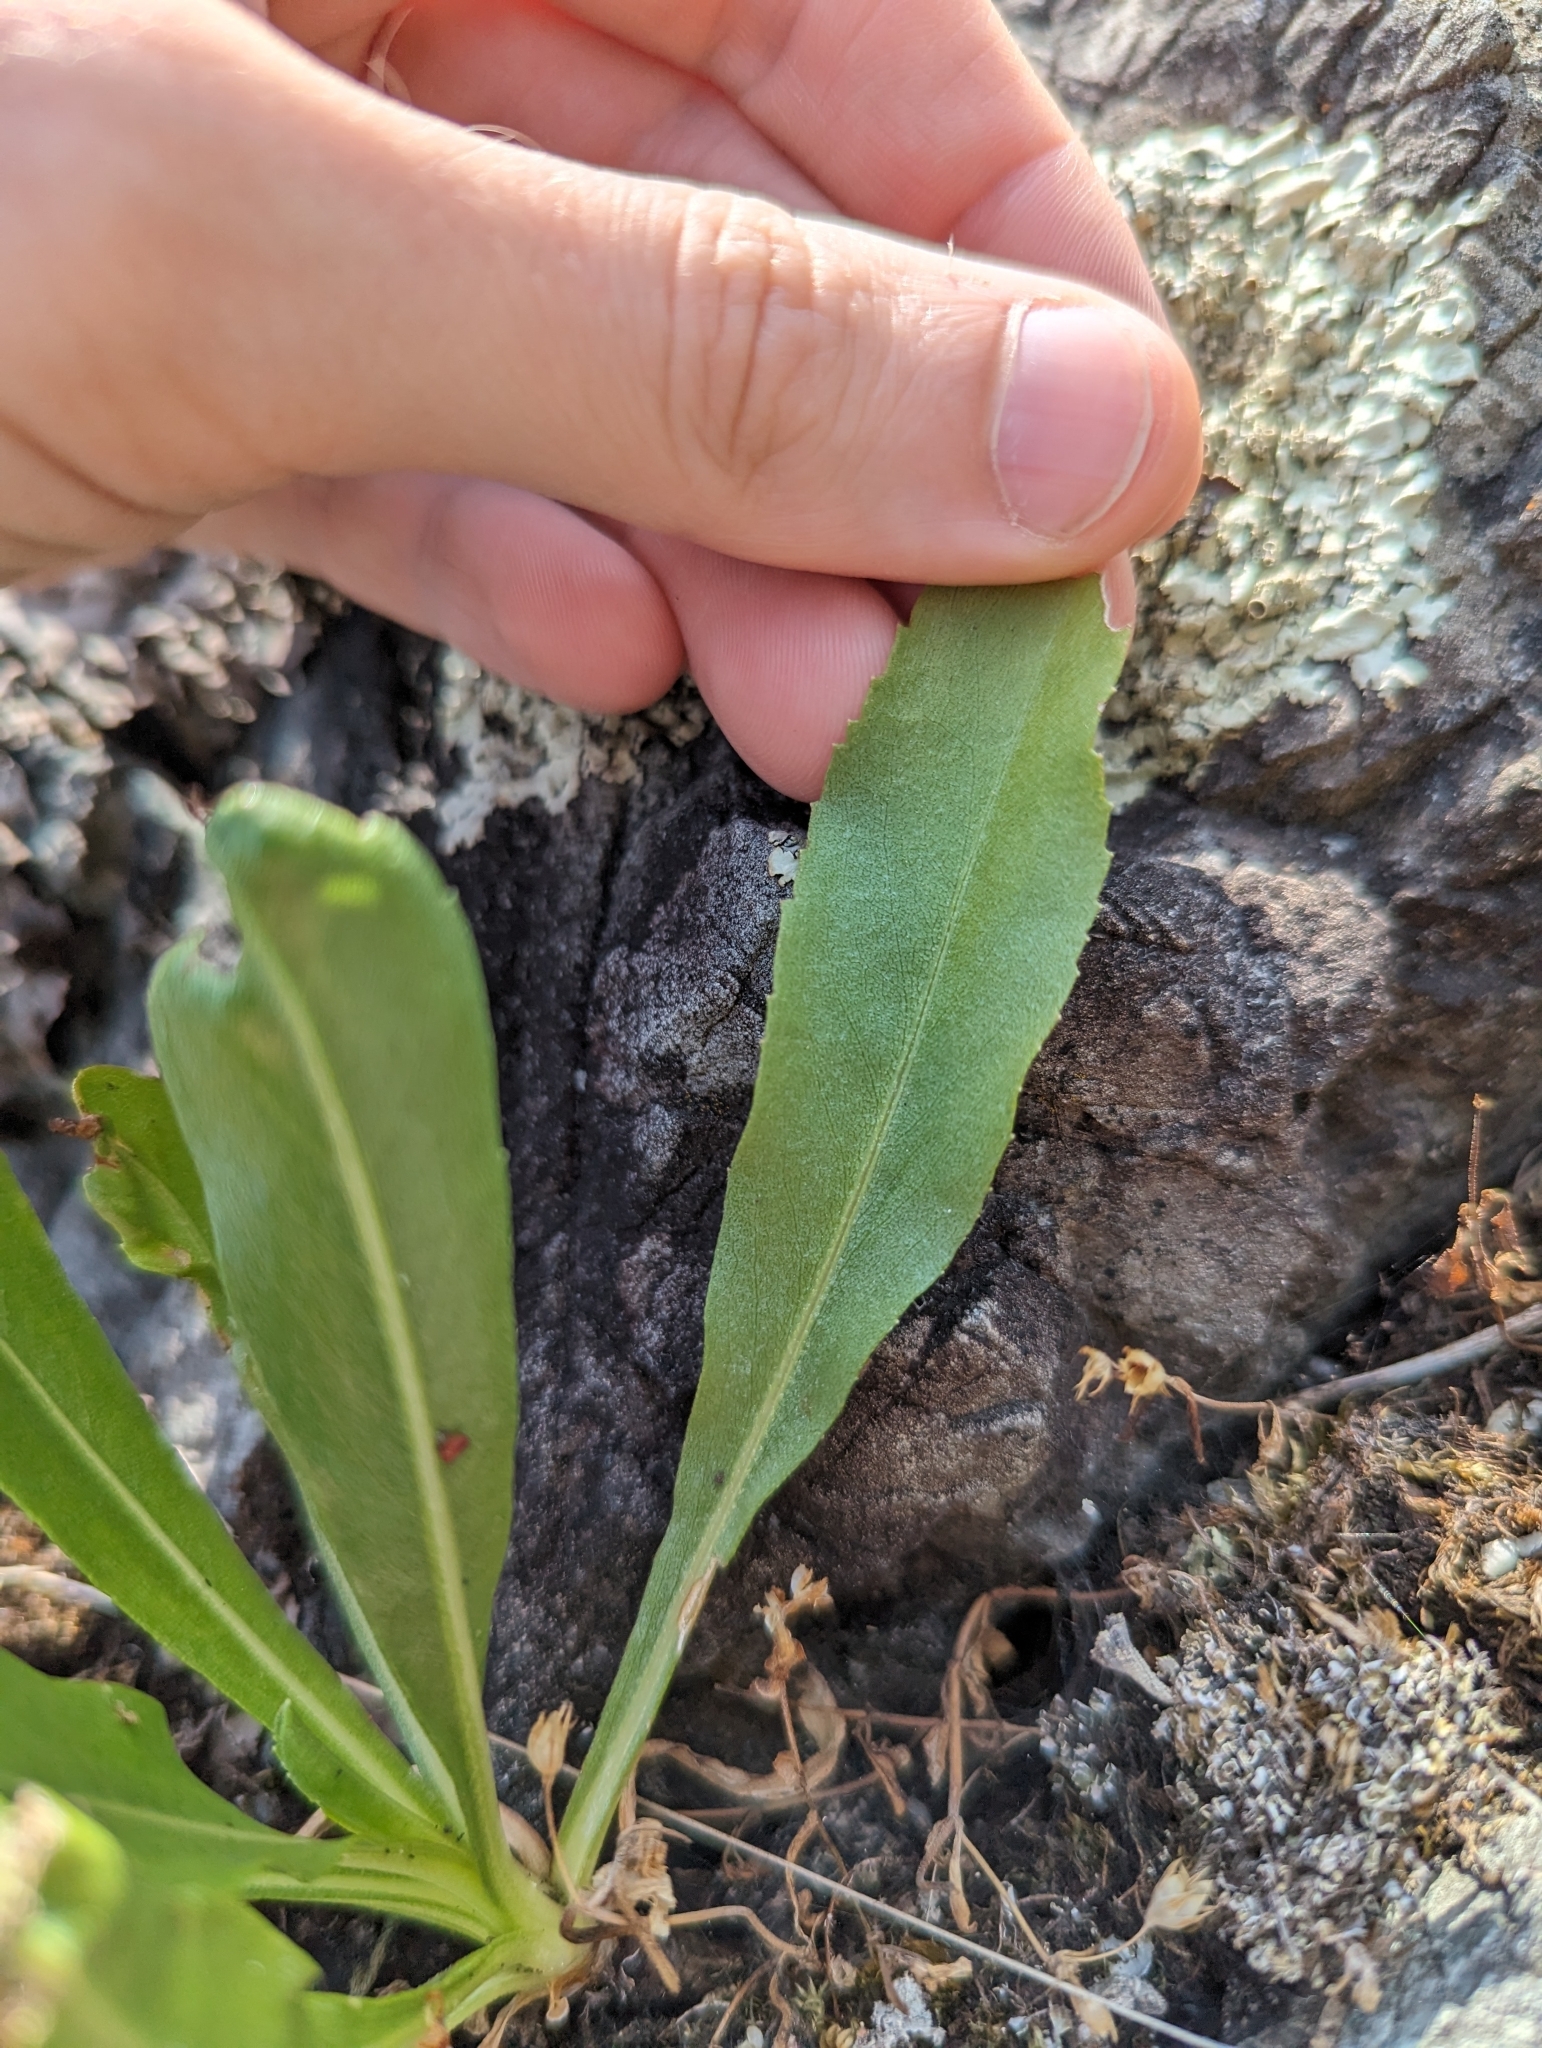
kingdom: Plantae
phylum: Tracheophyta
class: Magnoliopsida
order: Asterales
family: Asteraceae
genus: Grindelia
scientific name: Grindelia hirsutula
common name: Hairy gumweed
